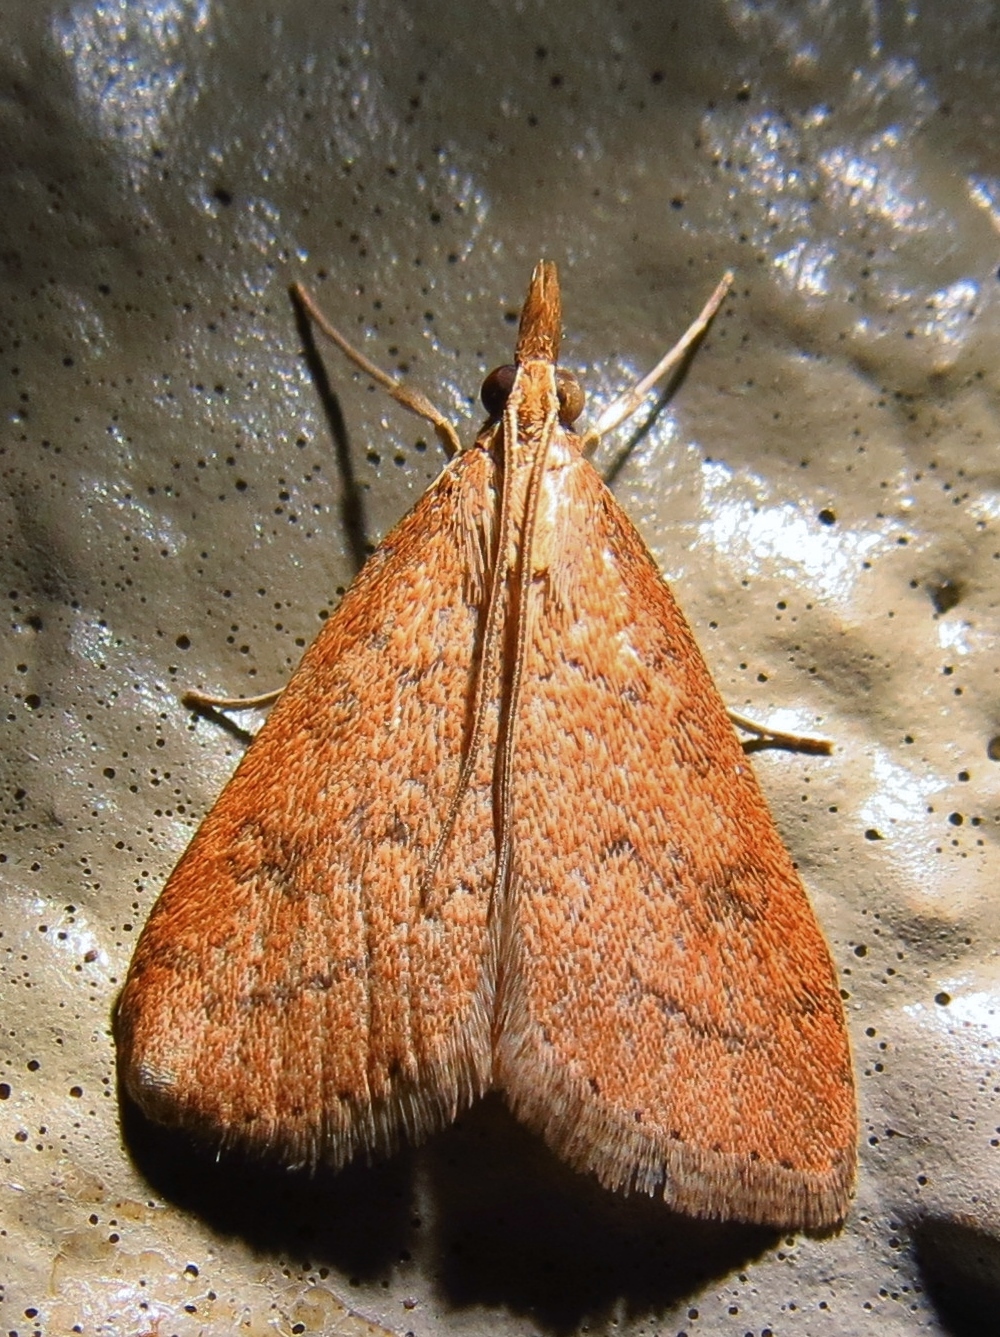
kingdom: Animalia
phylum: Arthropoda
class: Insecta
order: Lepidoptera
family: Crambidae
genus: Udea
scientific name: Udea rubigalis
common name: Celery leaftier moth
